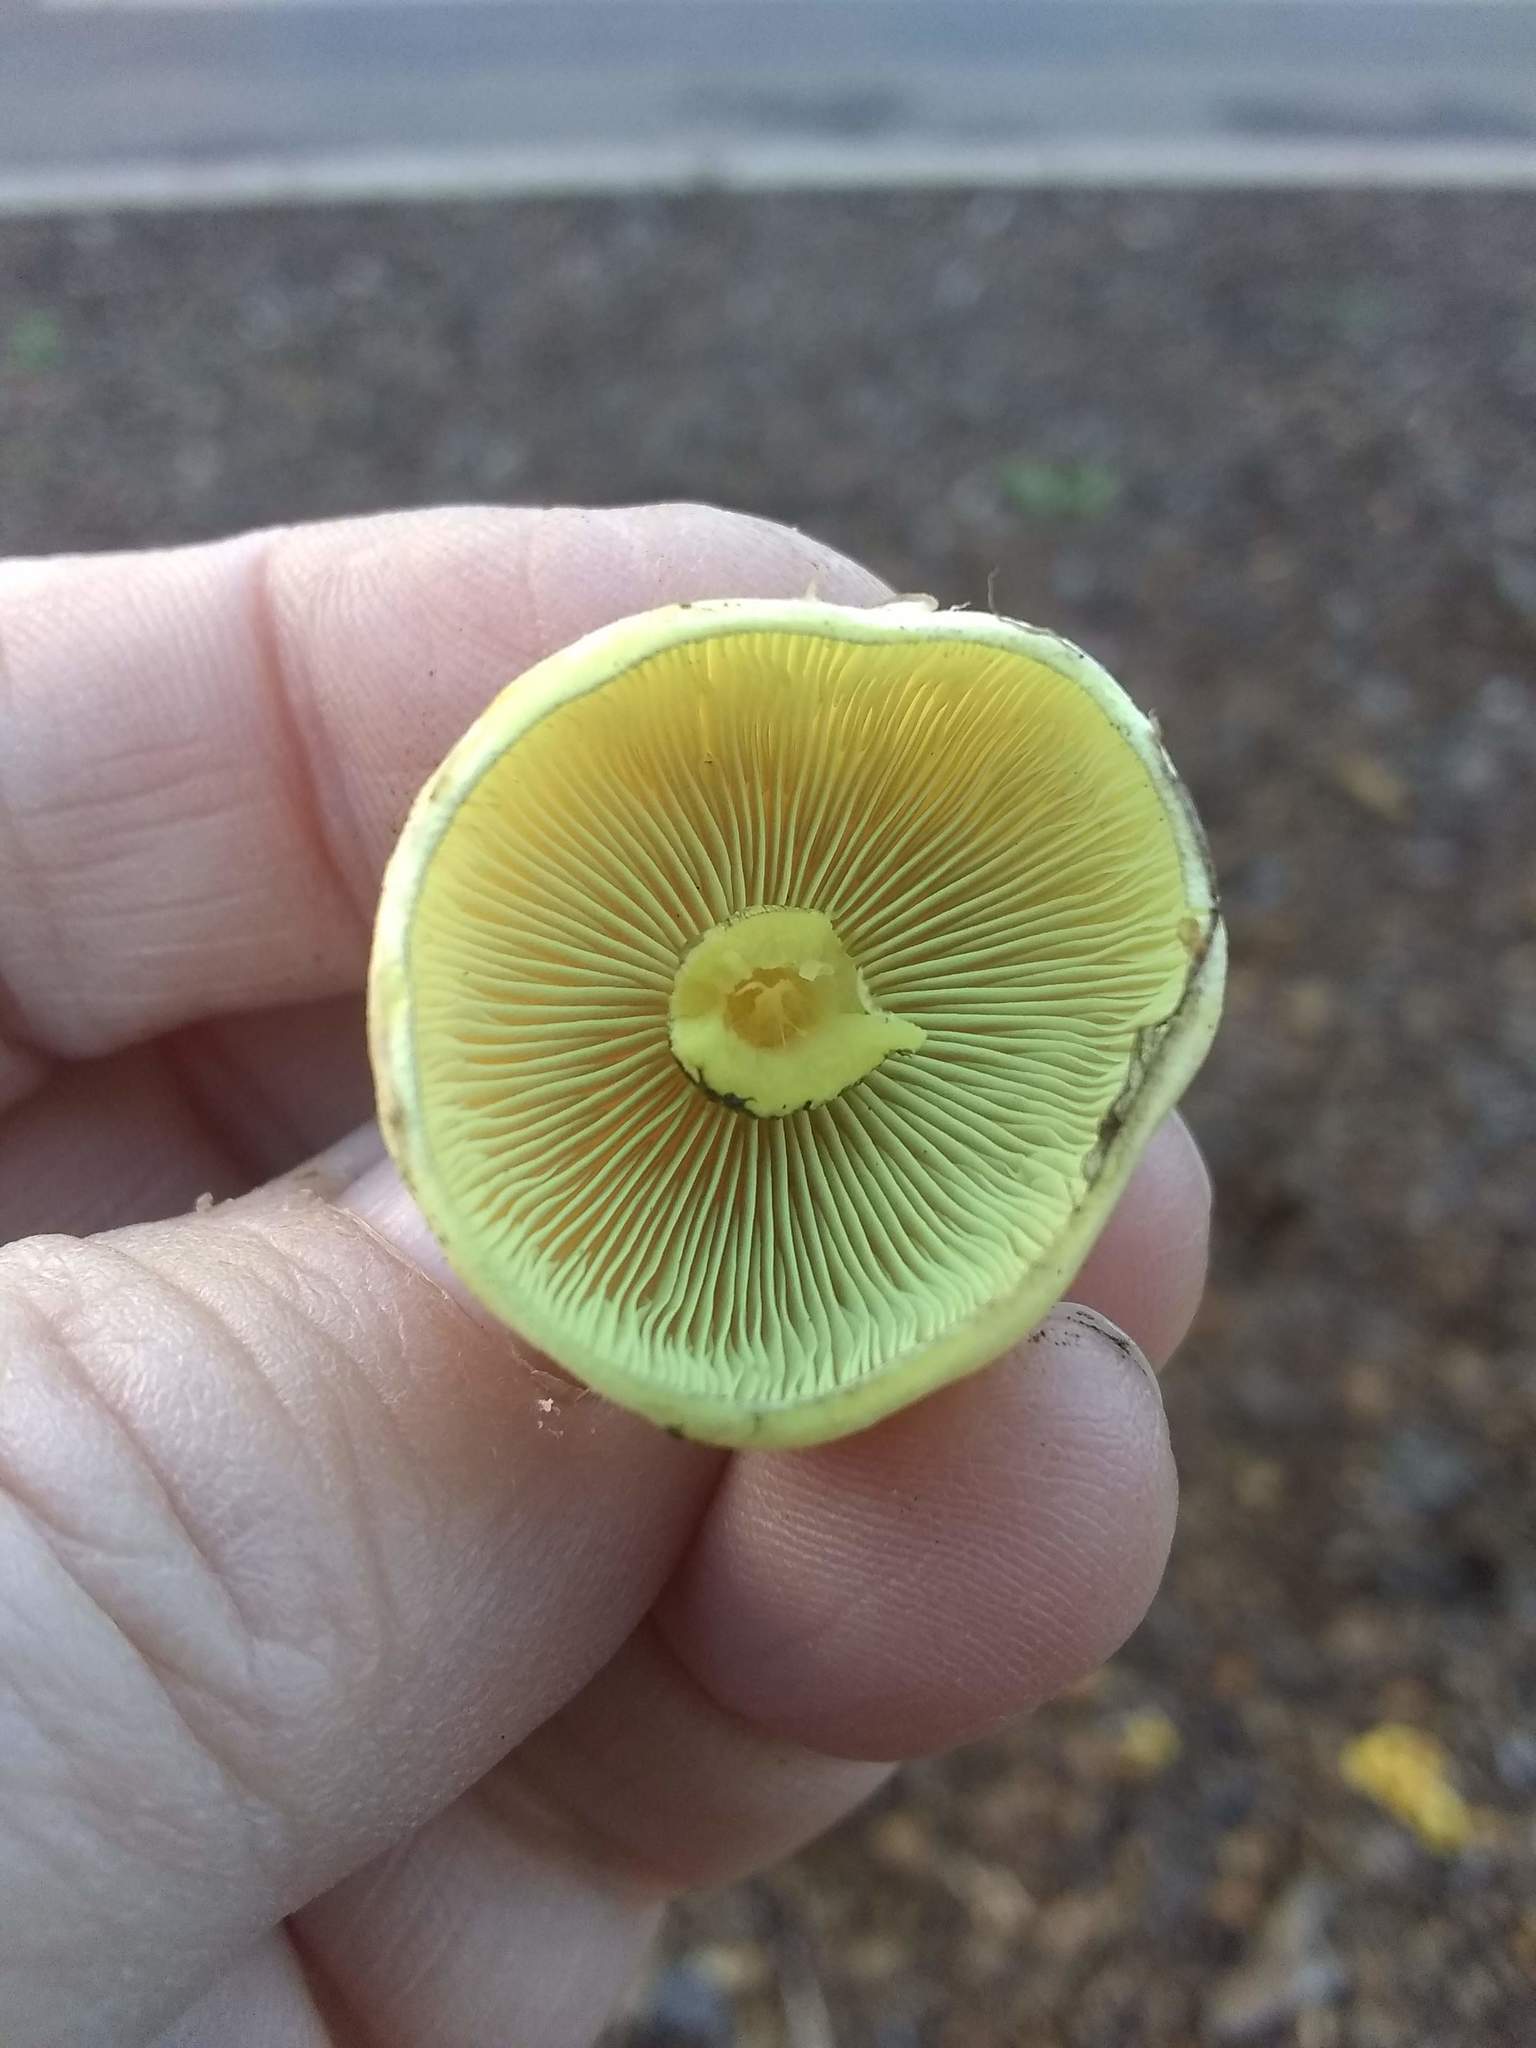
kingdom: Fungi
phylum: Basidiomycota
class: Agaricomycetes
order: Agaricales
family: Strophariaceae
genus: Hypholoma
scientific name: Hypholoma fasciculare
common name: Sulphur tuft
